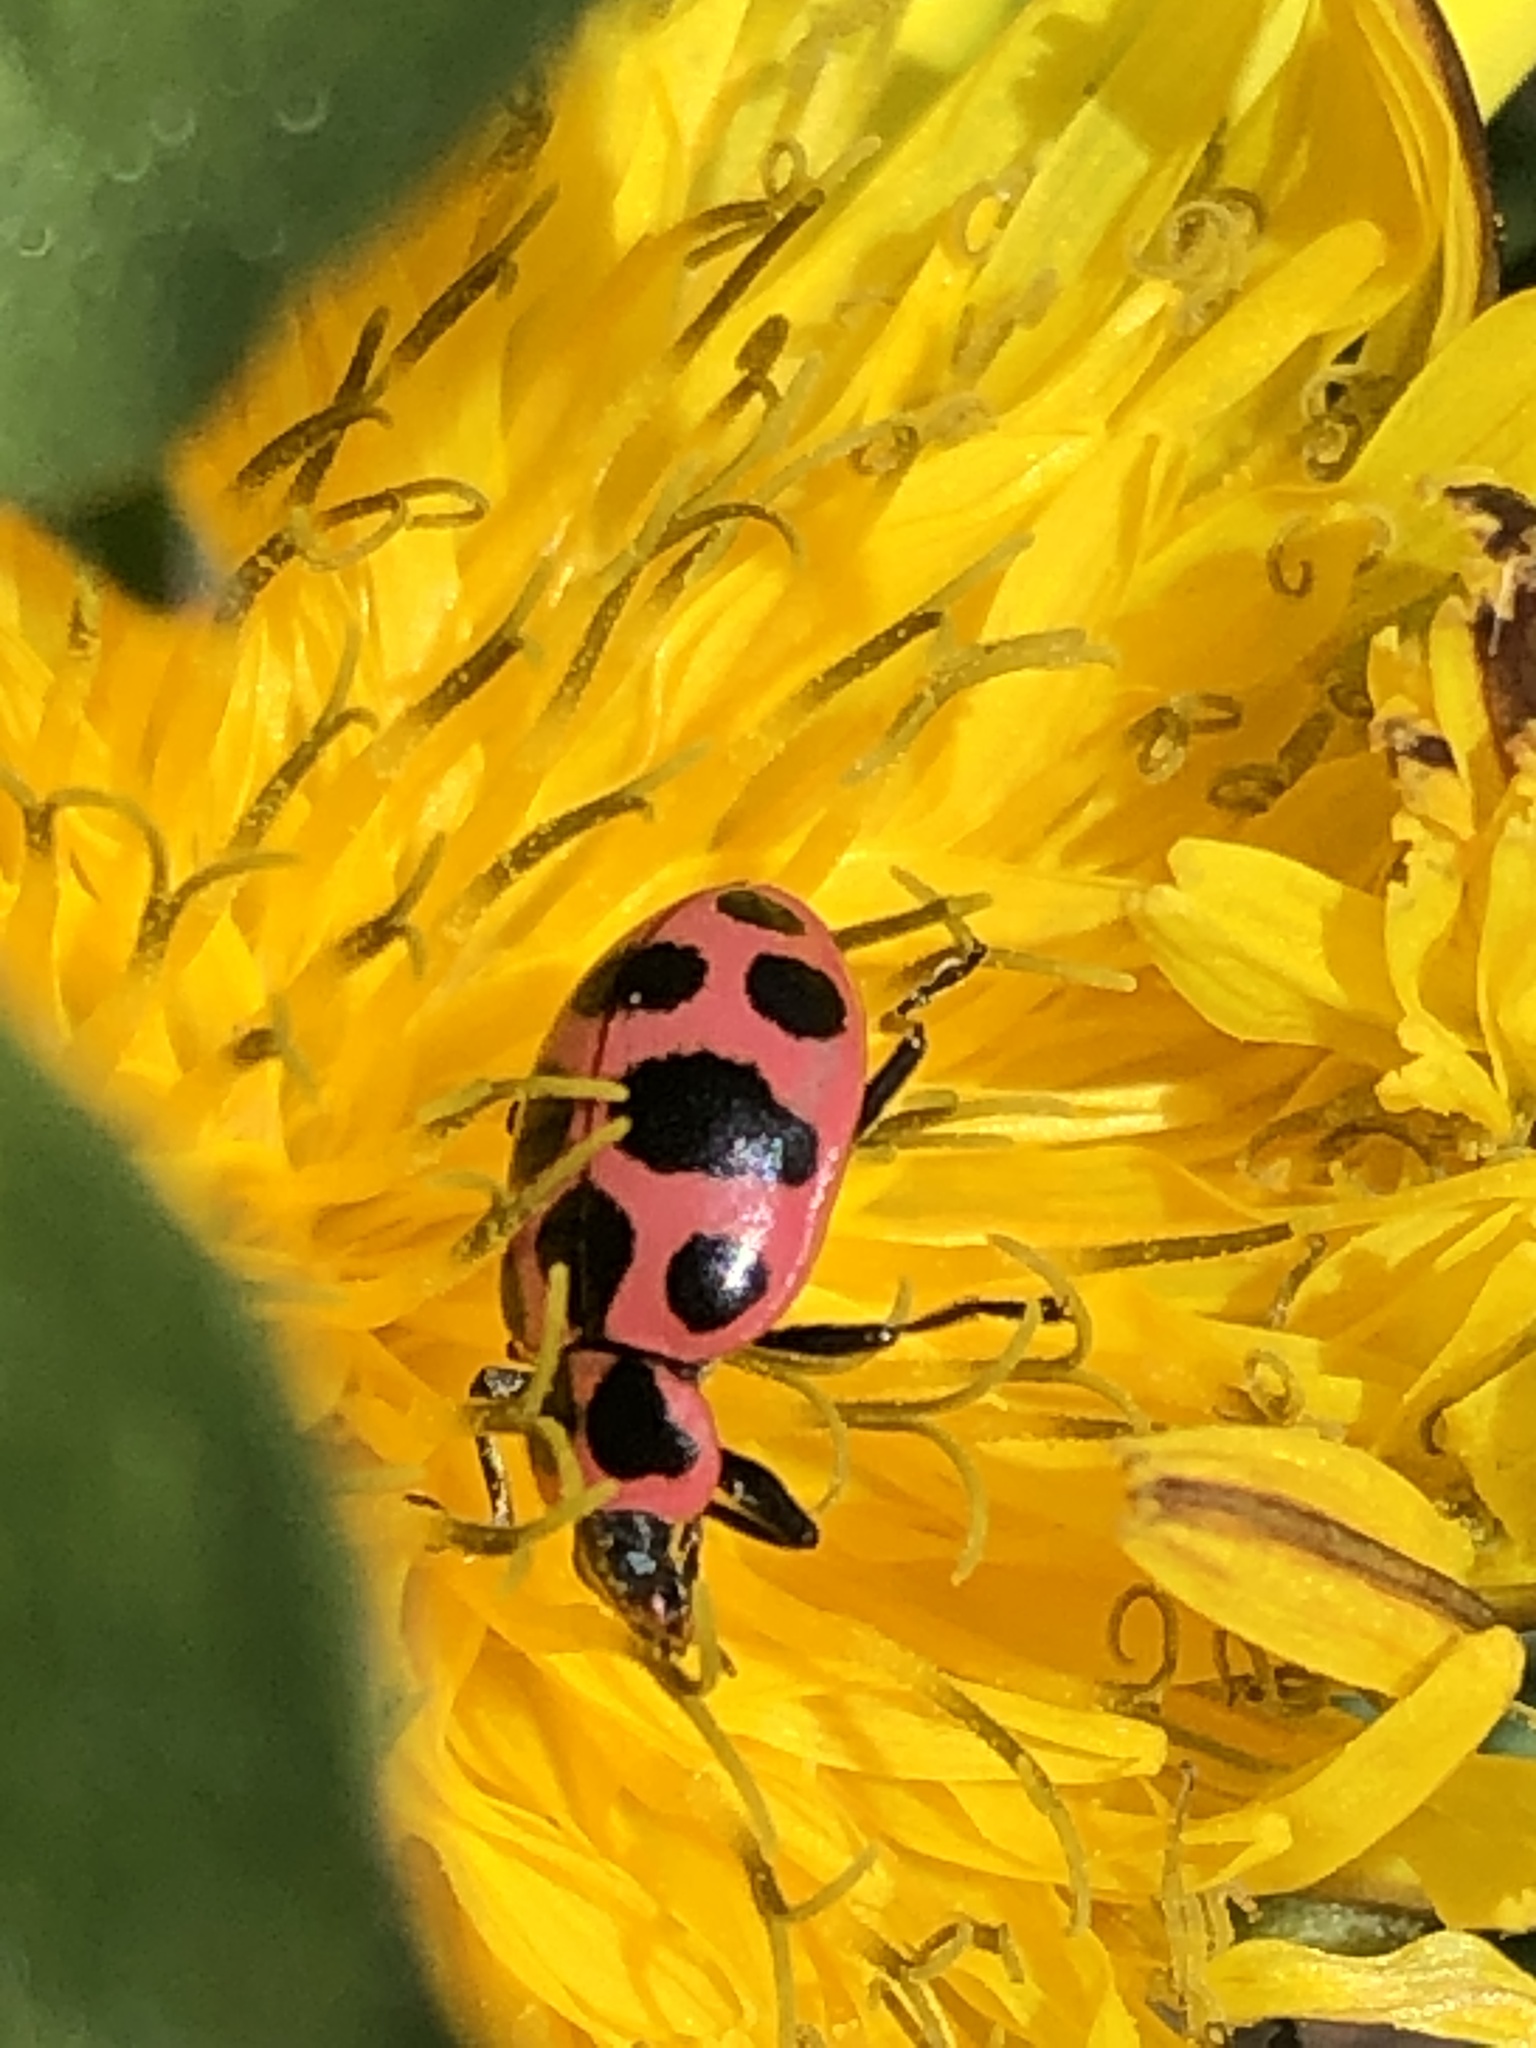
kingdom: Animalia
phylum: Arthropoda
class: Insecta
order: Coleoptera
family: Coccinellidae
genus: Coleomegilla
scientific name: Coleomegilla maculata
